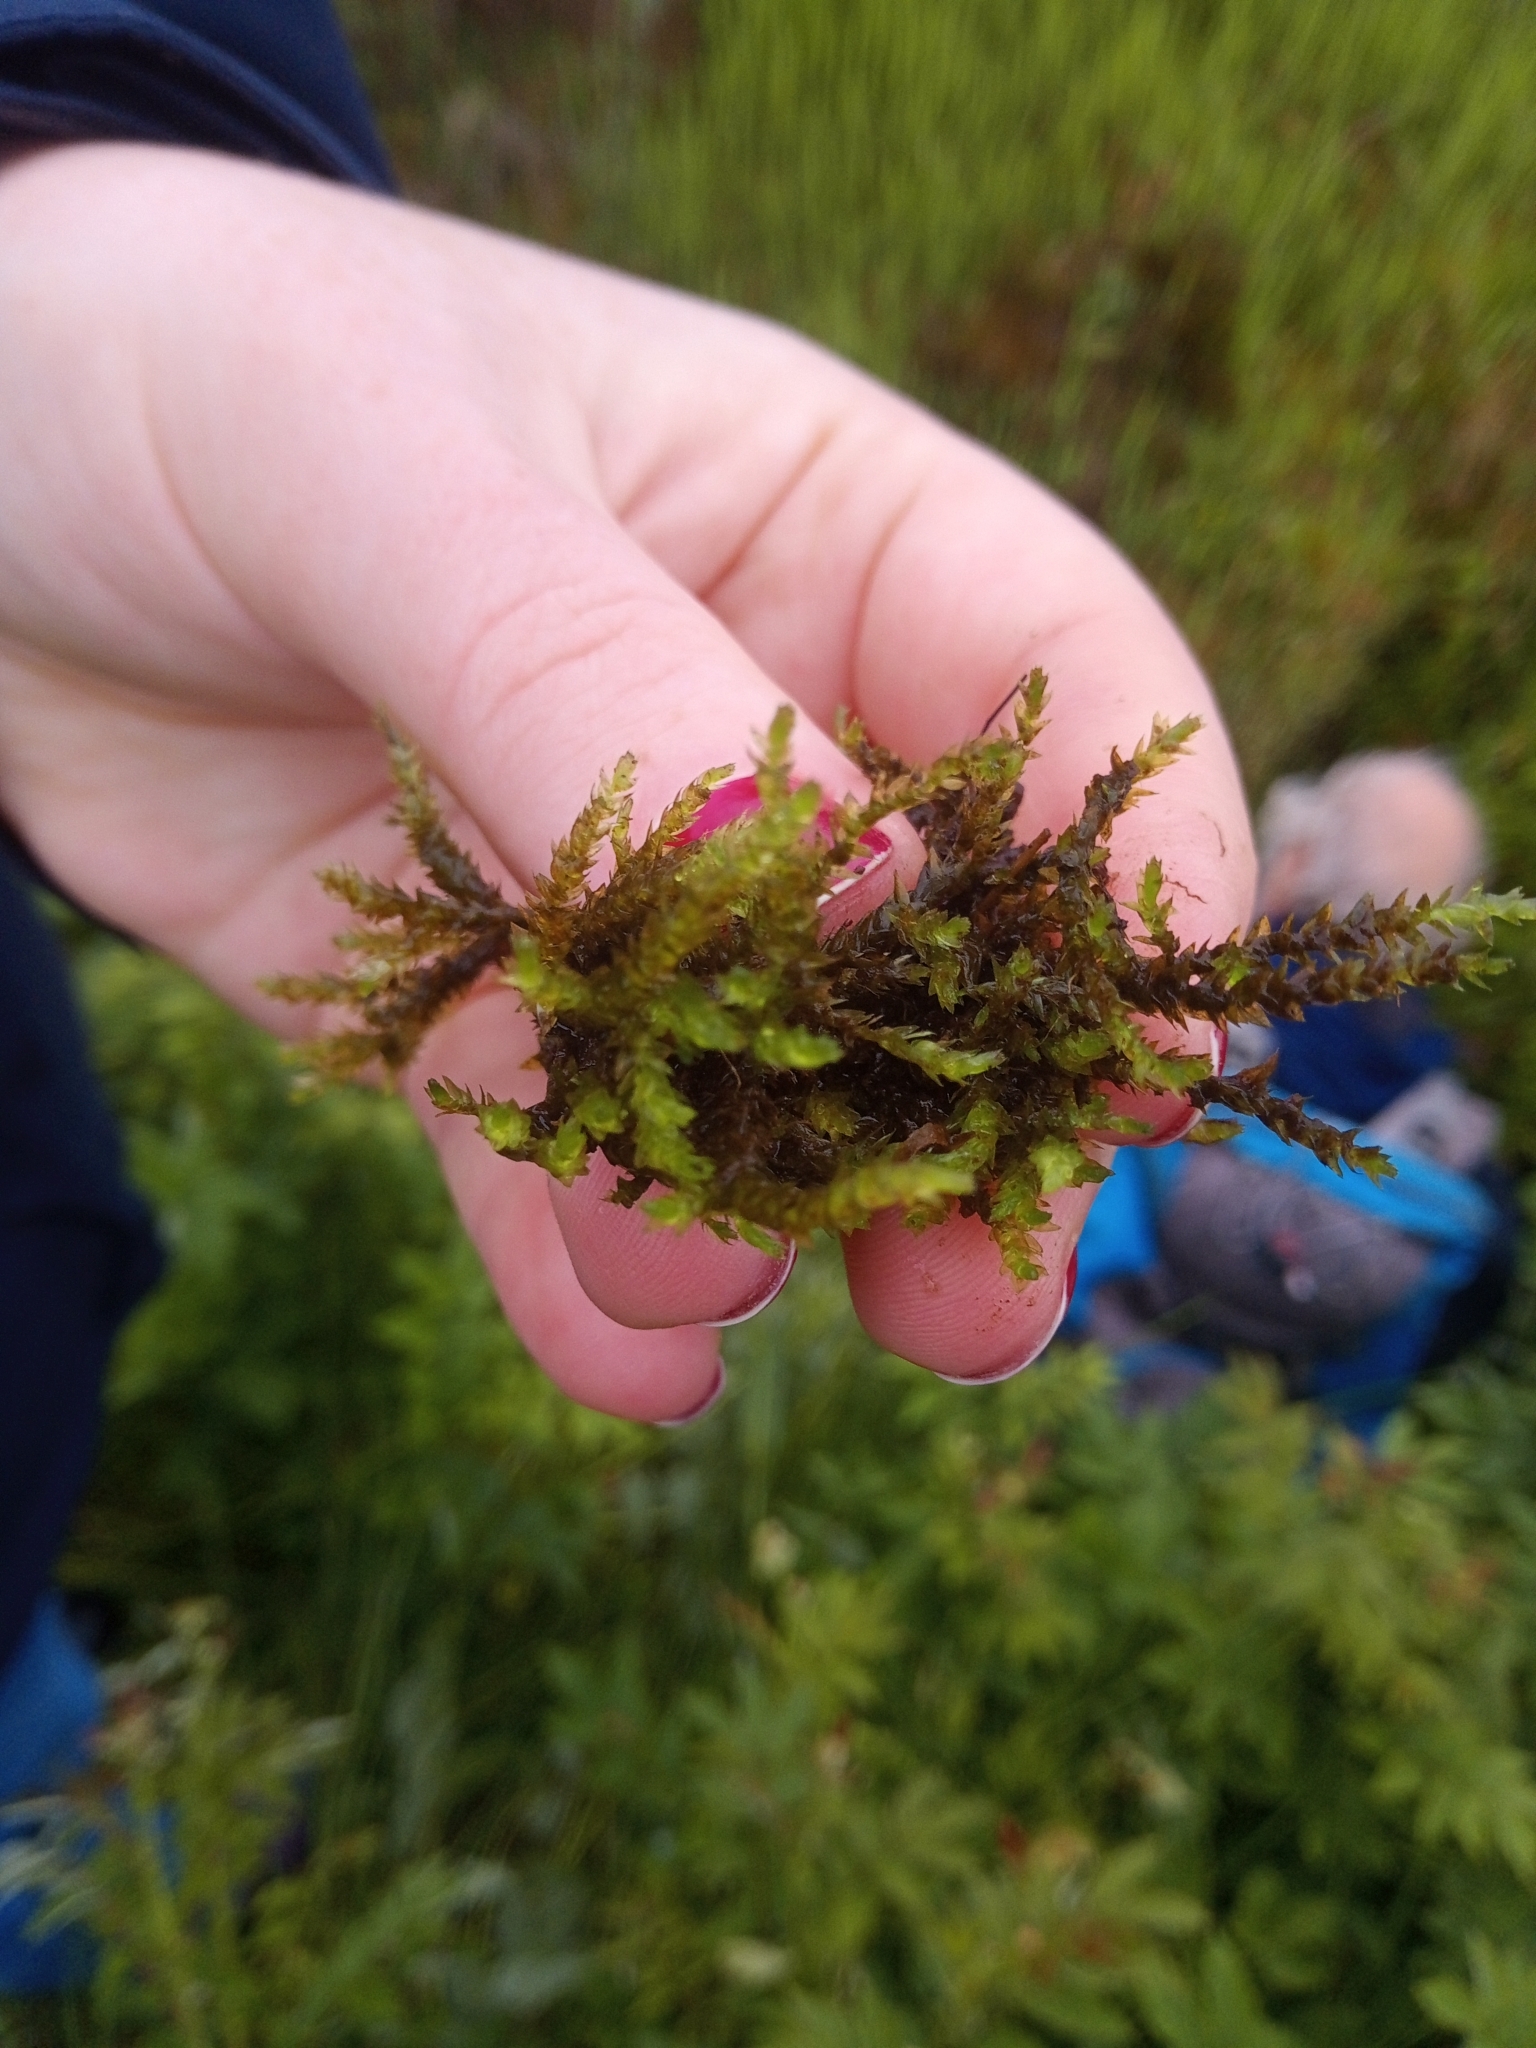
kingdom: Plantae
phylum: Bryophyta
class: Bryopsida
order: Hypnales
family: Brachytheciaceae
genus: Rhynchostegium
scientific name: Rhynchostegium riparioides
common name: Platyhypnidium moss
